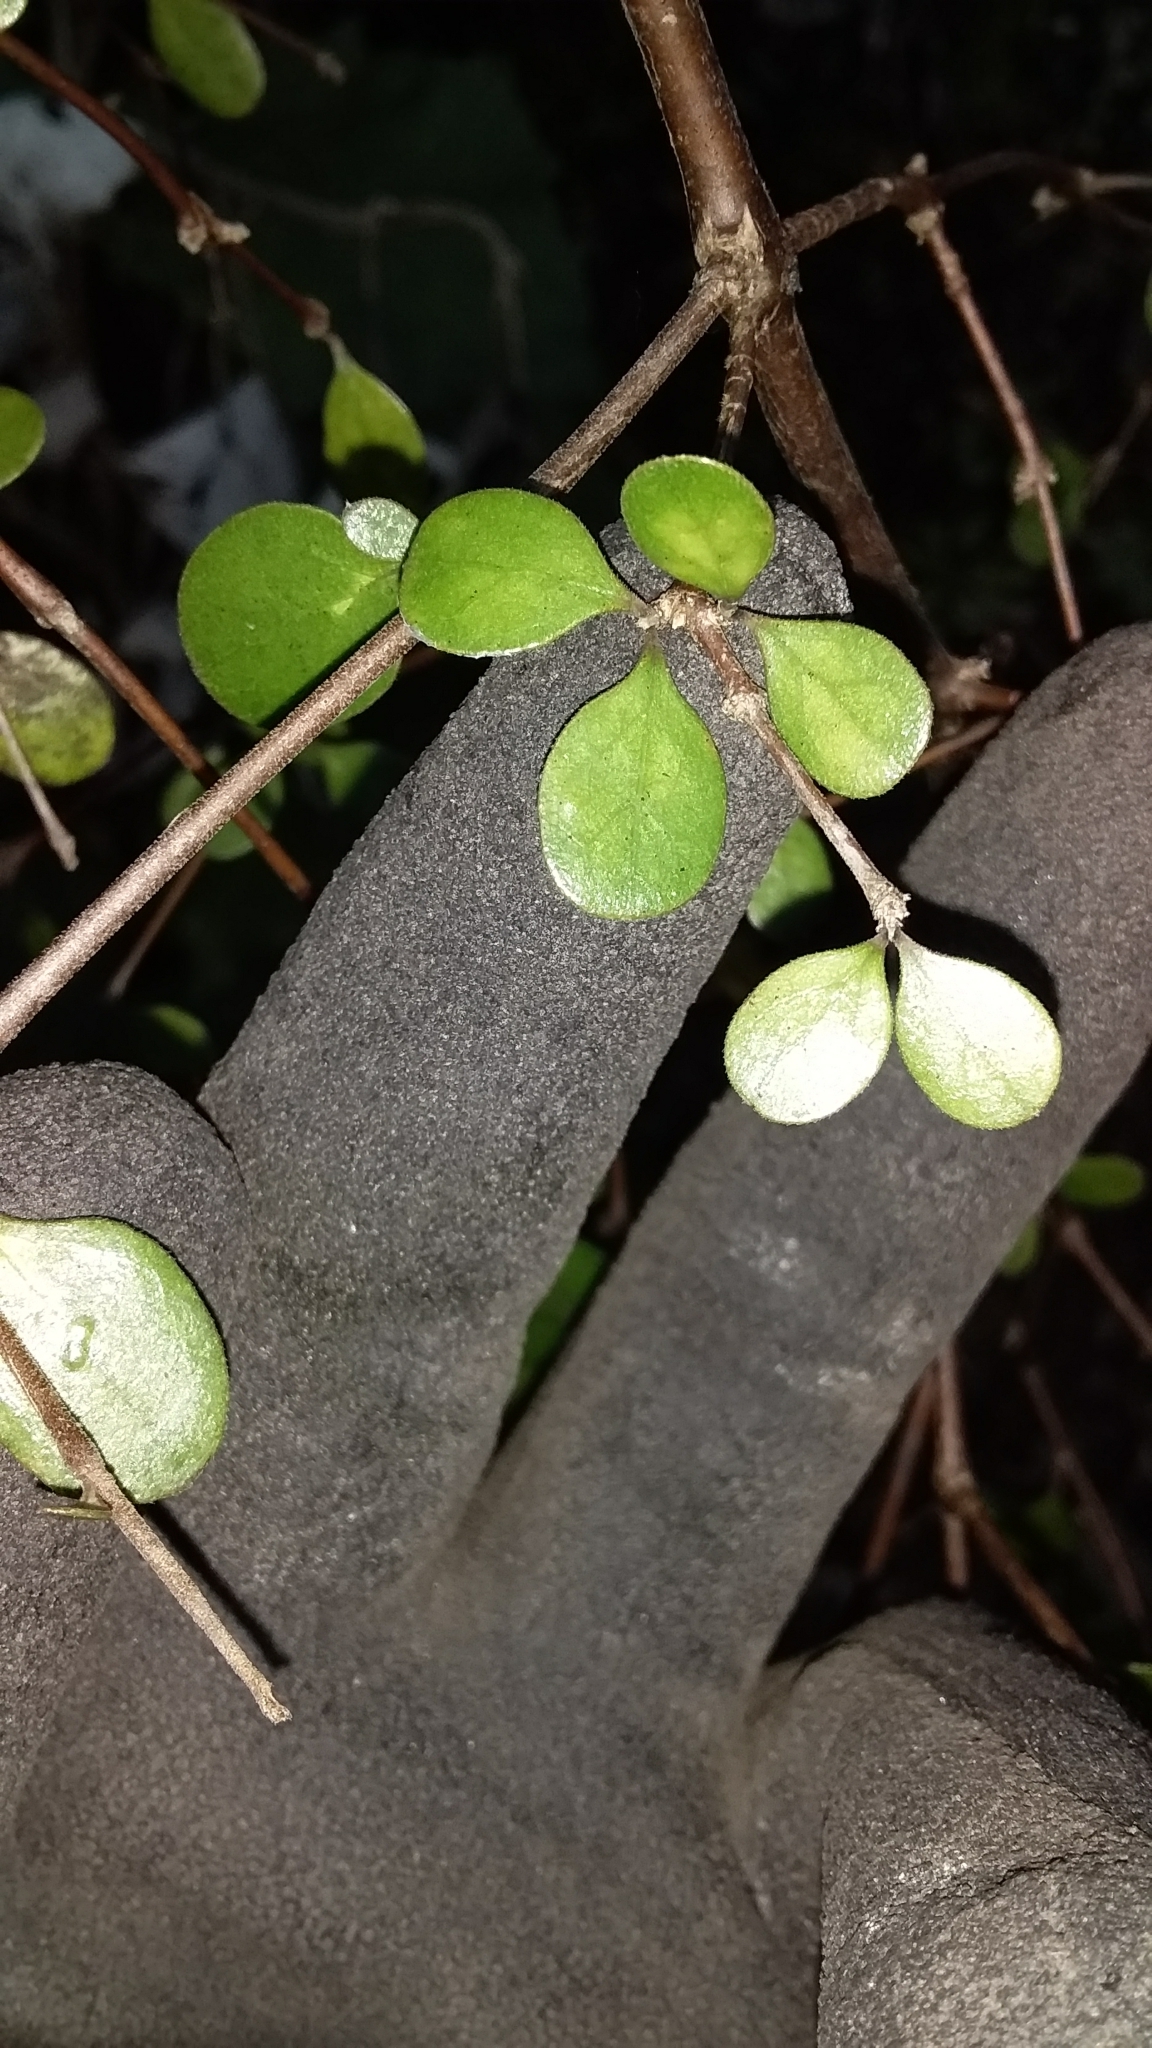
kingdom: Plantae
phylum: Tracheophyta
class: Magnoliopsida
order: Gentianales
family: Rubiaceae
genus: Coprosma
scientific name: Coprosma crassifolia
